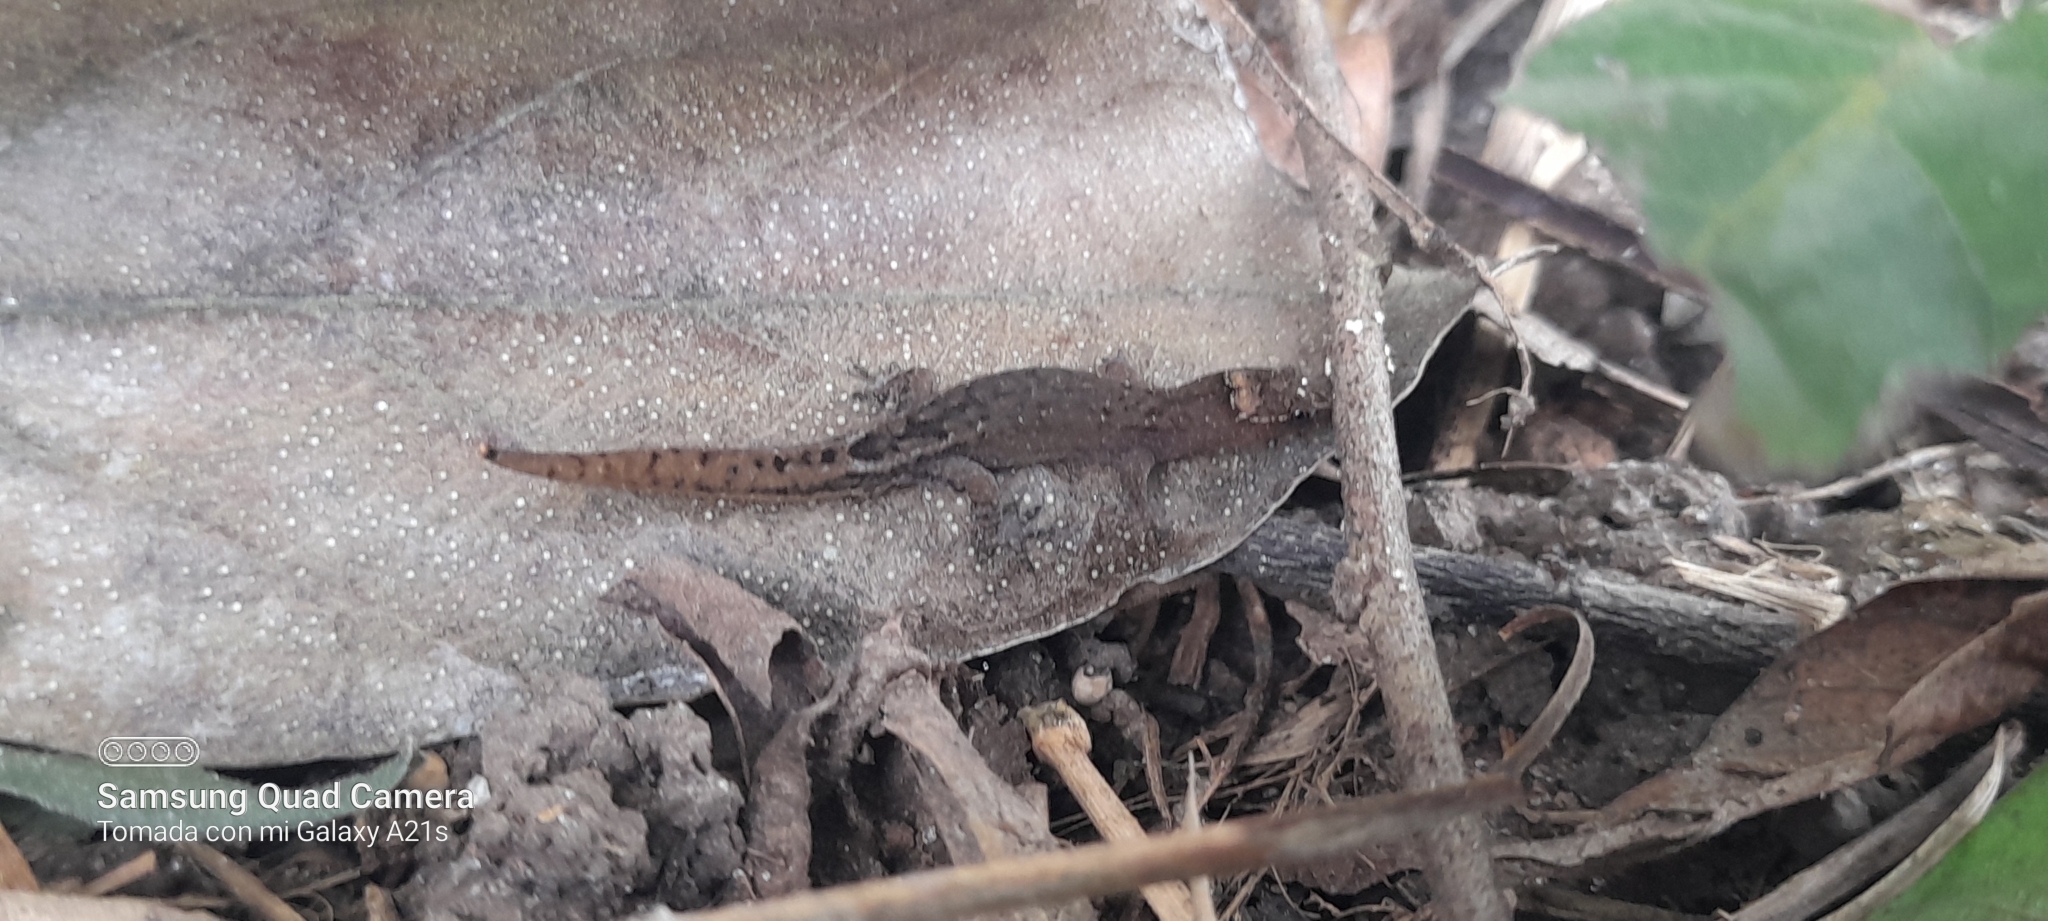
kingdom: Animalia
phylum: Chordata
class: Squamata
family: Sphaerodactylidae
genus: Lepidoblepharis
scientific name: Lepidoblepharis sanctaemartae
